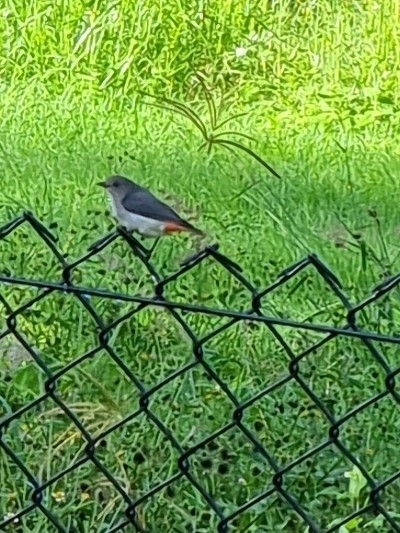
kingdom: Animalia
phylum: Chordata
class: Aves
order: Passeriformes
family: Dicaeidae
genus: Dicaeum
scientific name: Dicaeum hirundinaceum
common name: Mistletoebird
